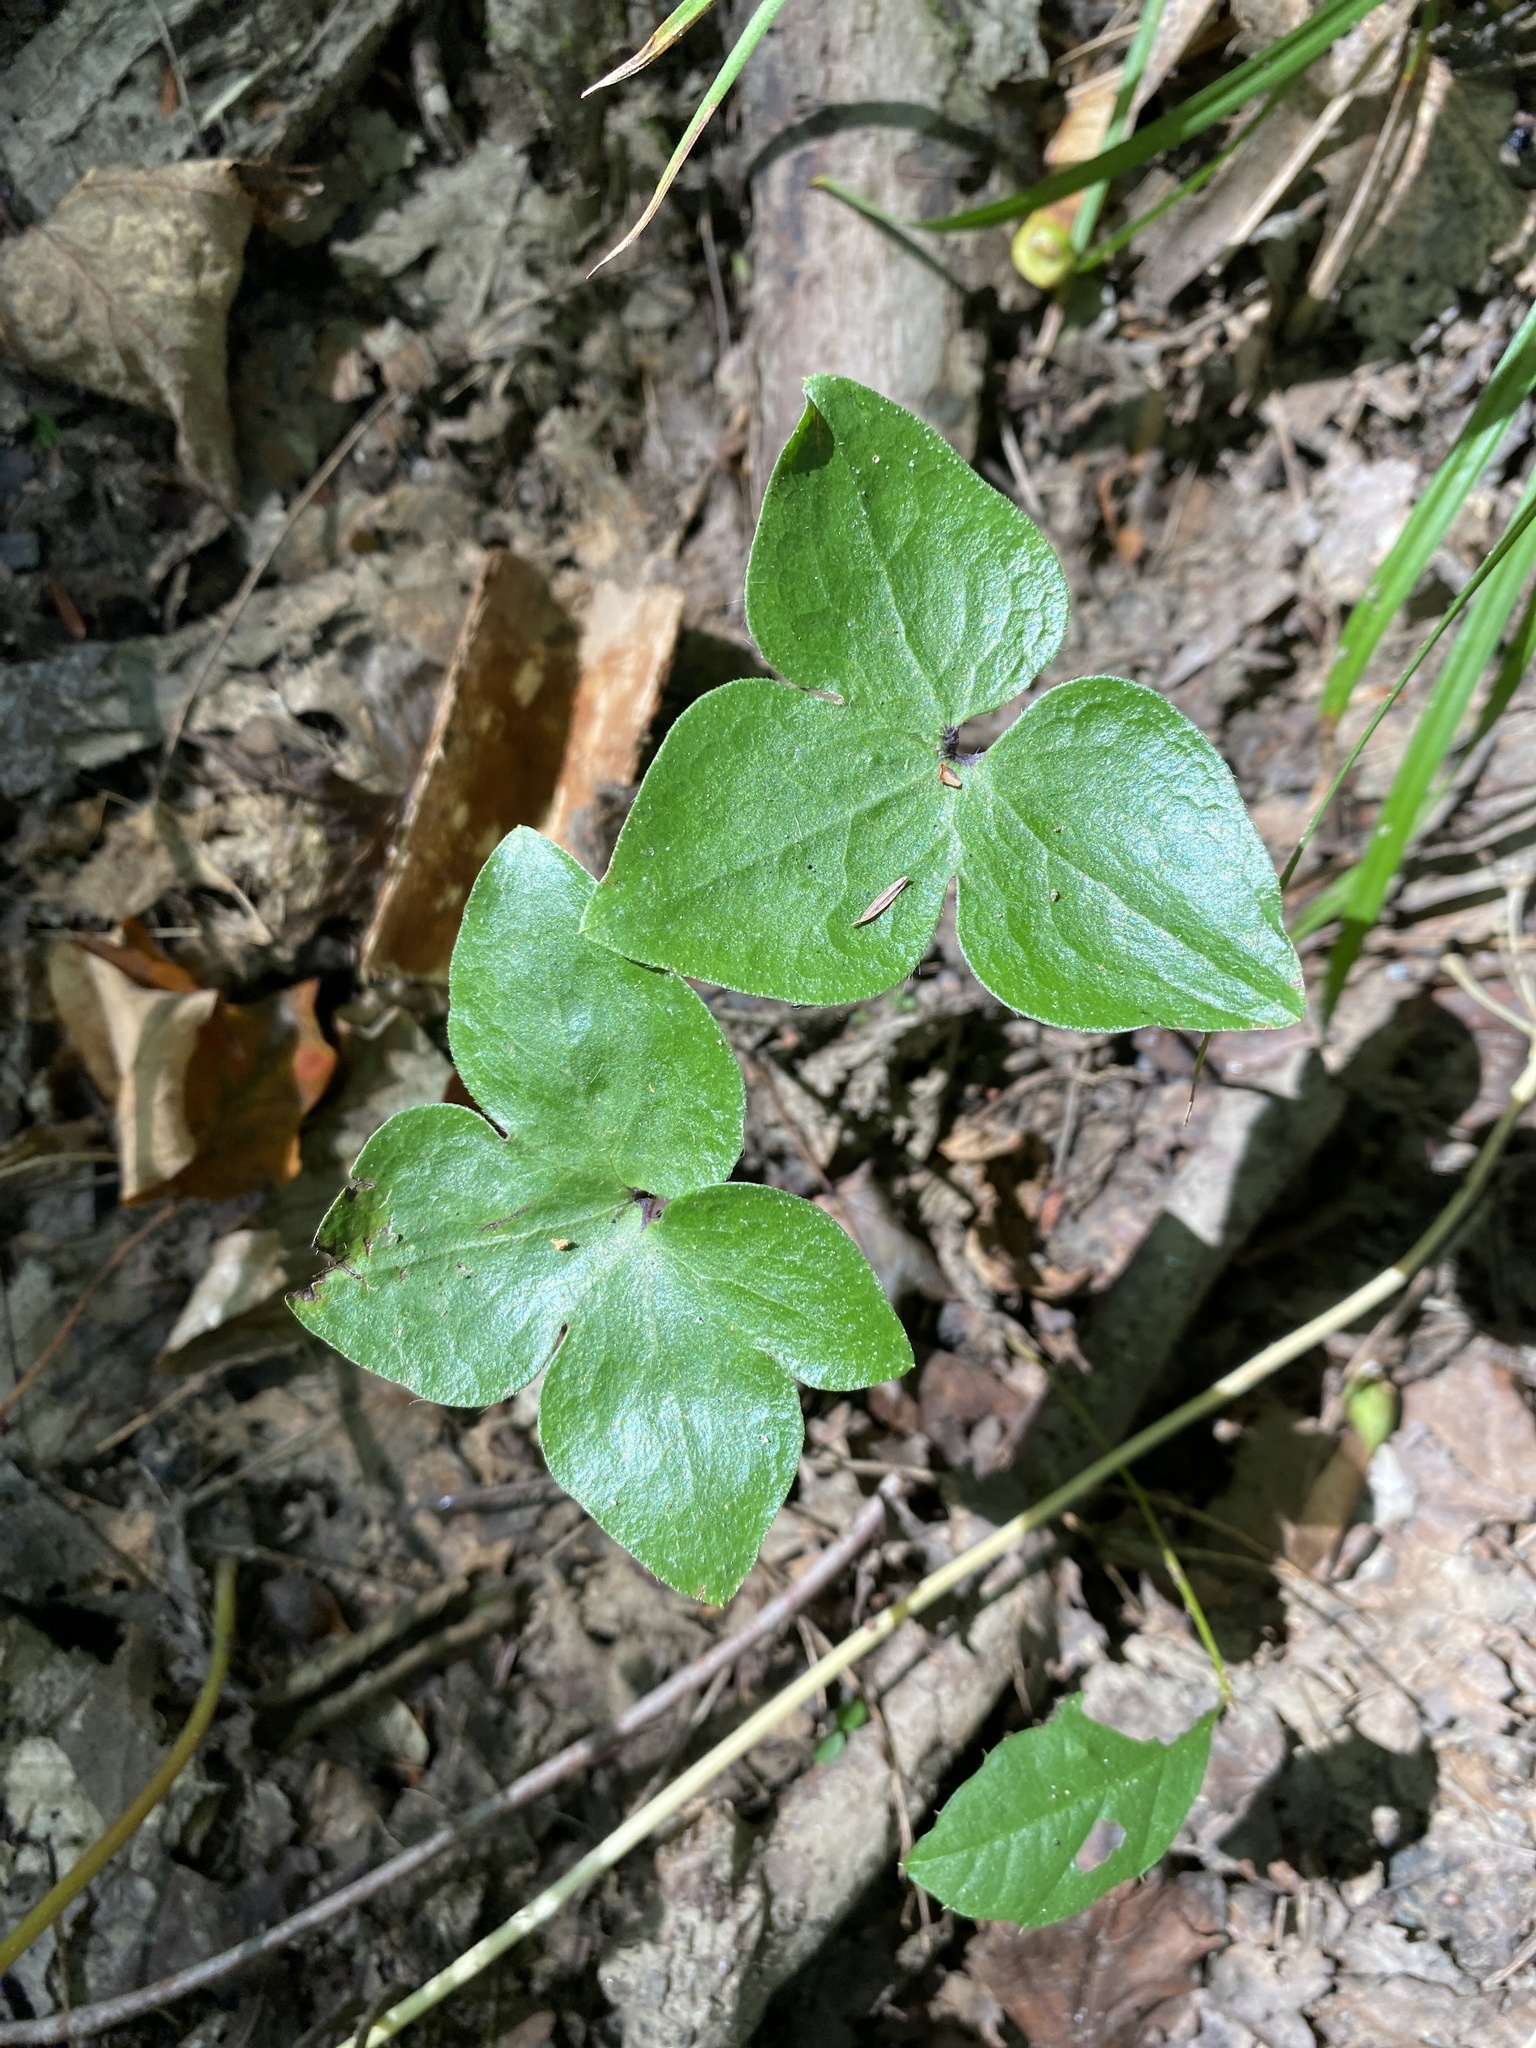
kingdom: Plantae
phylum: Tracheophyta
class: Magnoliopsida
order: Ranunculales
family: Ranunculaceae
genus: Hepatica
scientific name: Hepatica acutiloba
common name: Sharp-lobed hepatica
